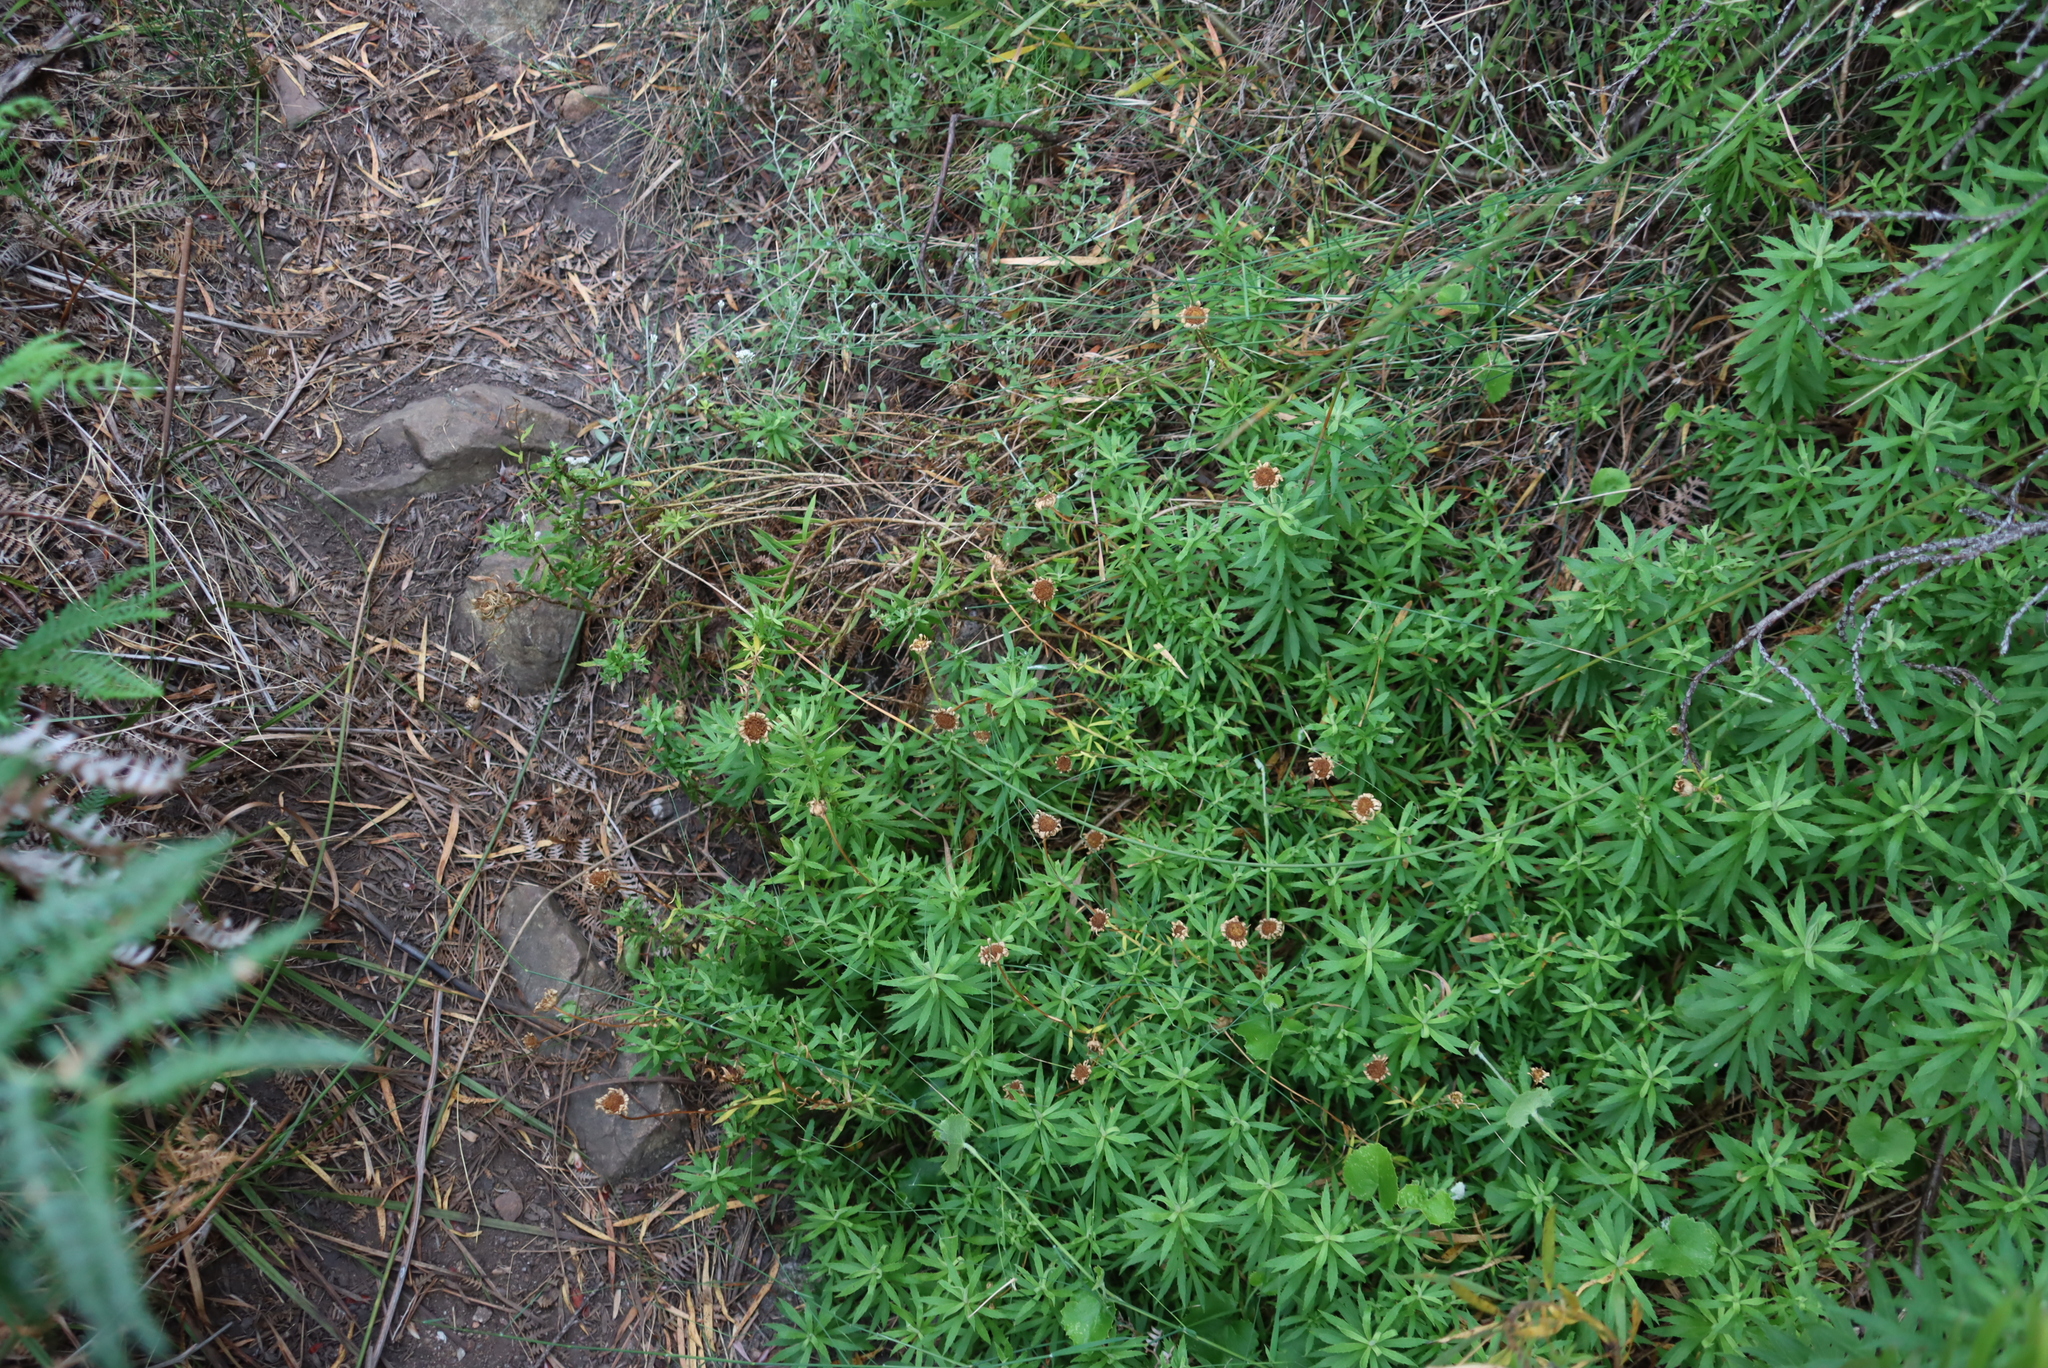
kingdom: Plantae
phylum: Tracheophyta
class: Magnoliopsida
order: Asterales
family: Asteraceae
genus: Osmitopsis
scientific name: Osmitopsis osmitoides
